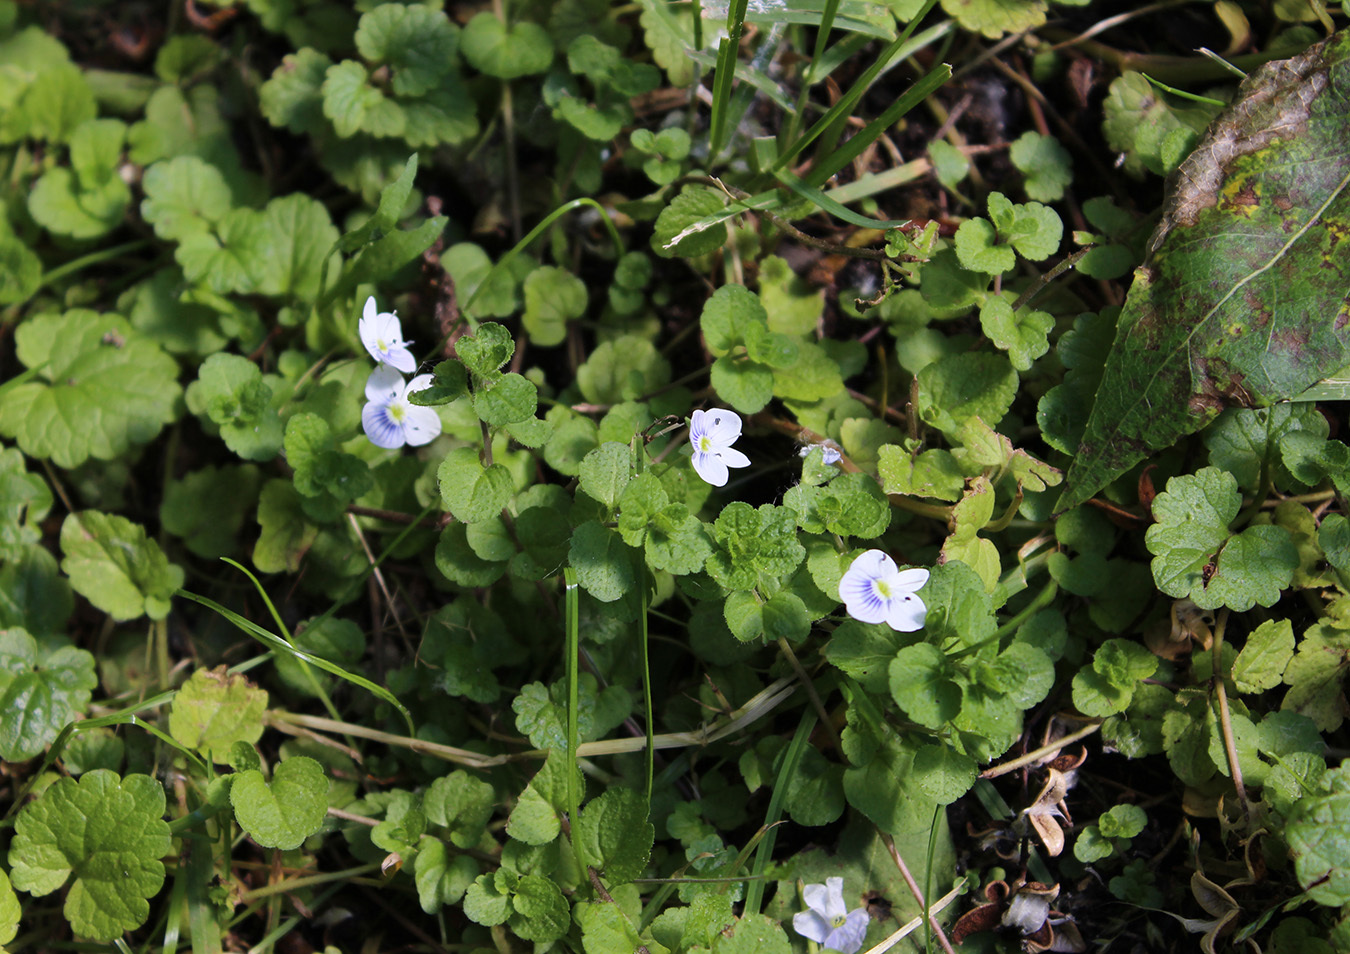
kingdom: Plantae
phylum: Tracheophyta
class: Magnoliopsida
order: Lamiales
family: Plantaginaceae
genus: Veronica
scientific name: Veronica filiformis
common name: Slender speedwell
